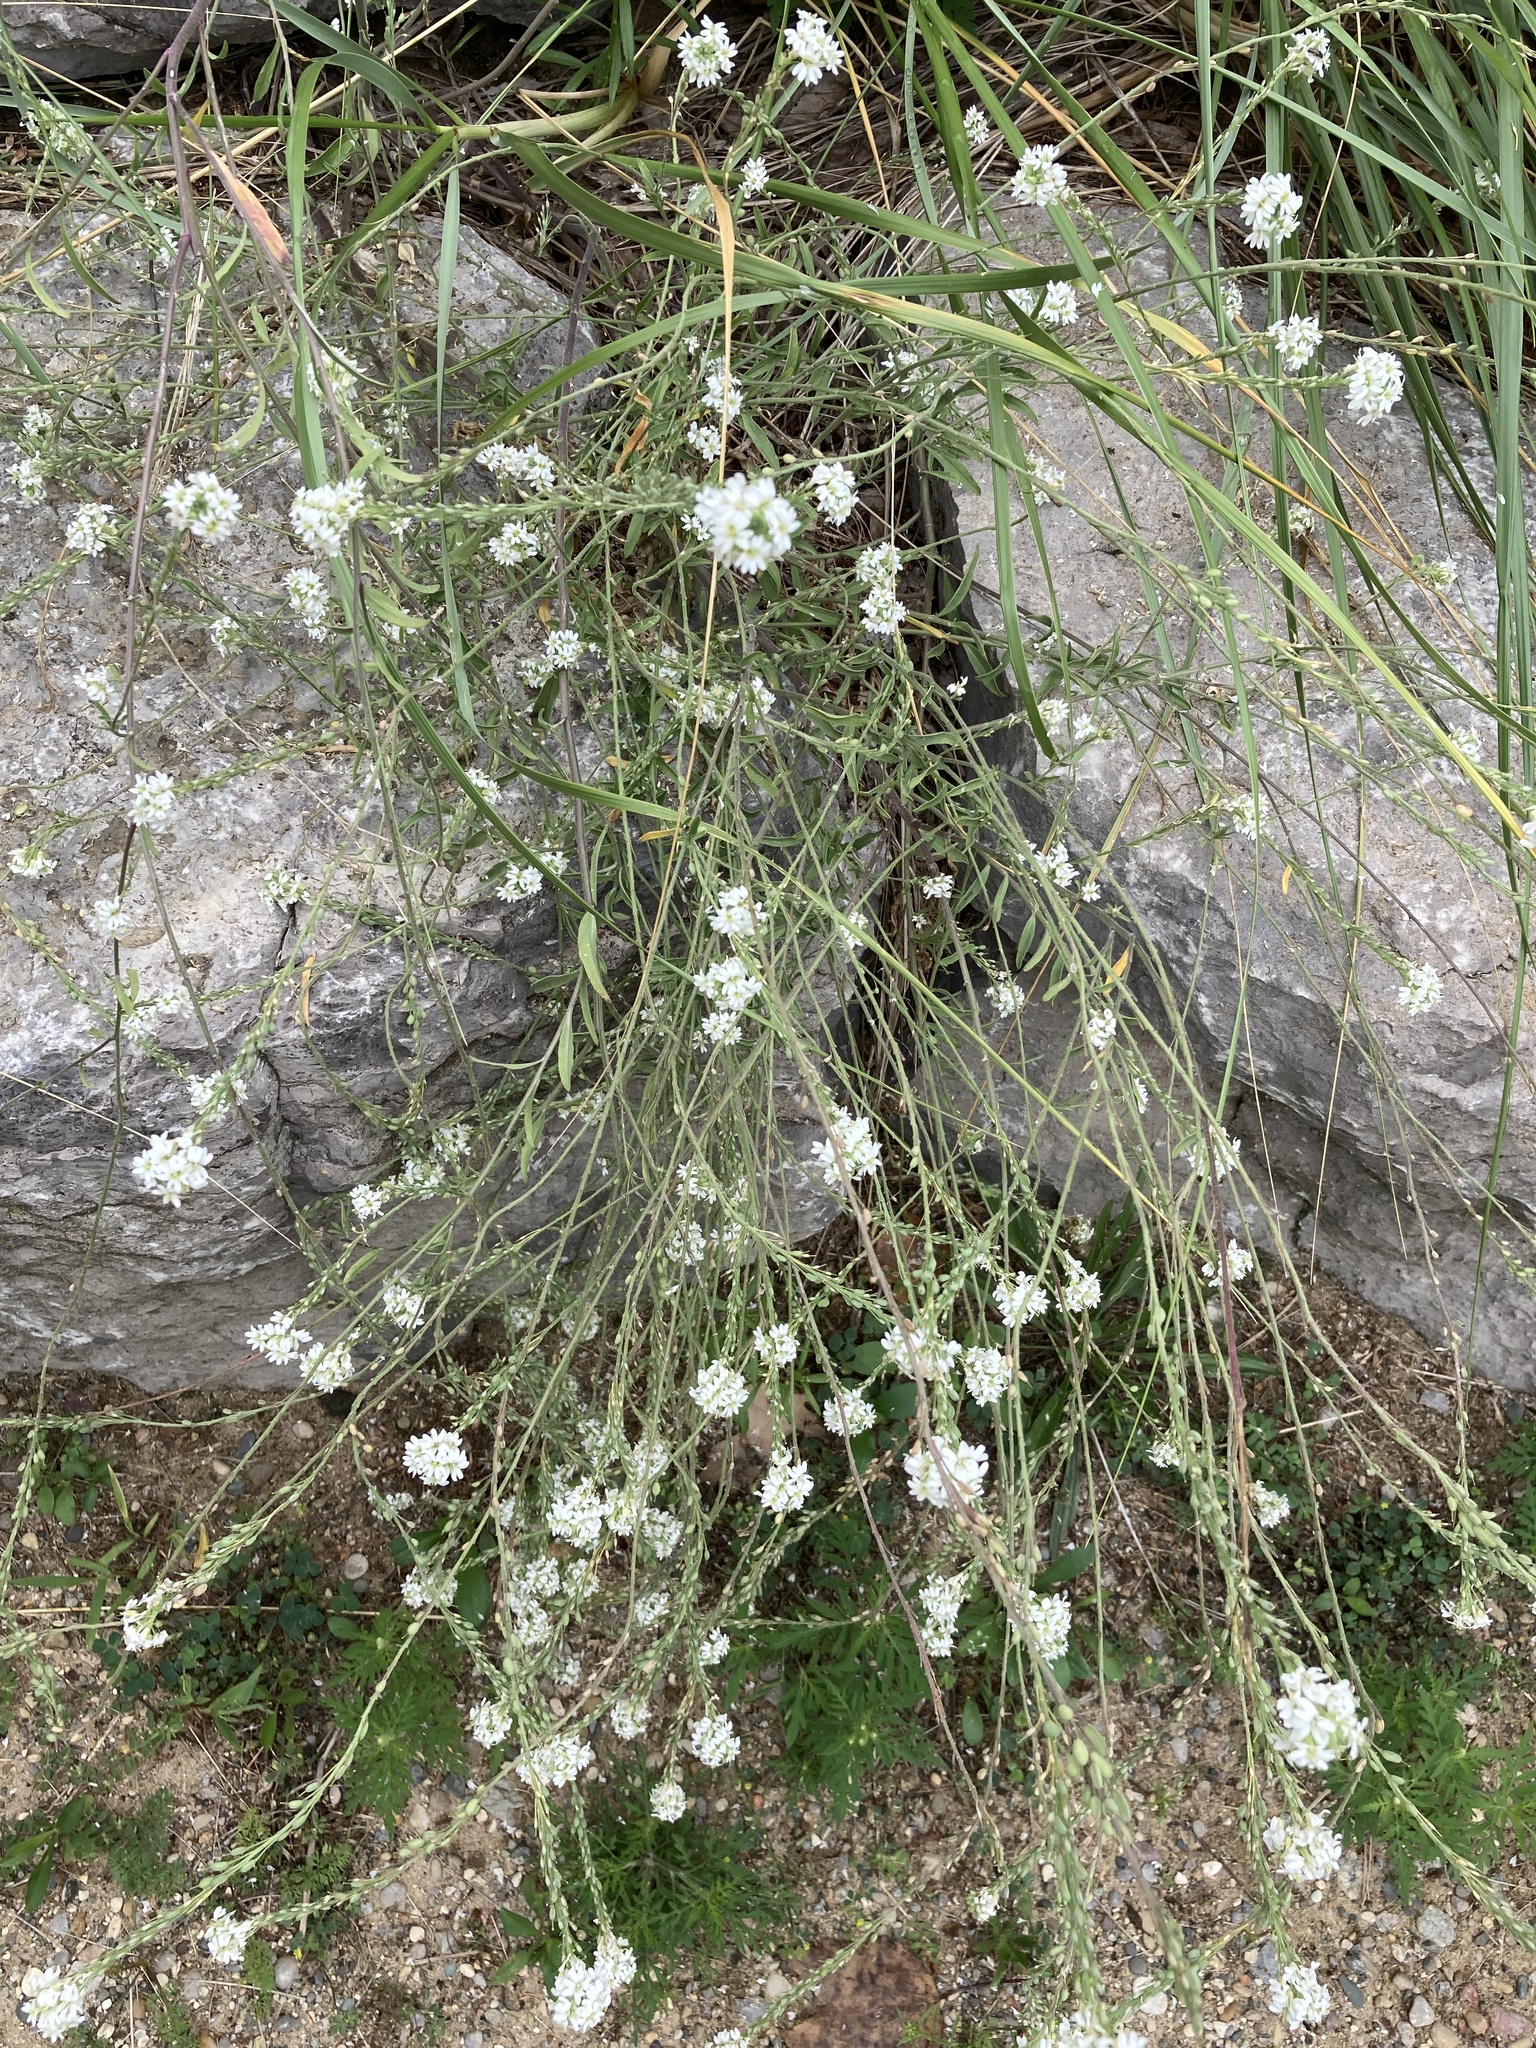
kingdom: Plantae
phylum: Tracheophyta
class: Magnoliopsida
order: Brassicales
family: Brassicaceae
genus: Berteroa
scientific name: Berteroa incana
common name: Hoary alison
